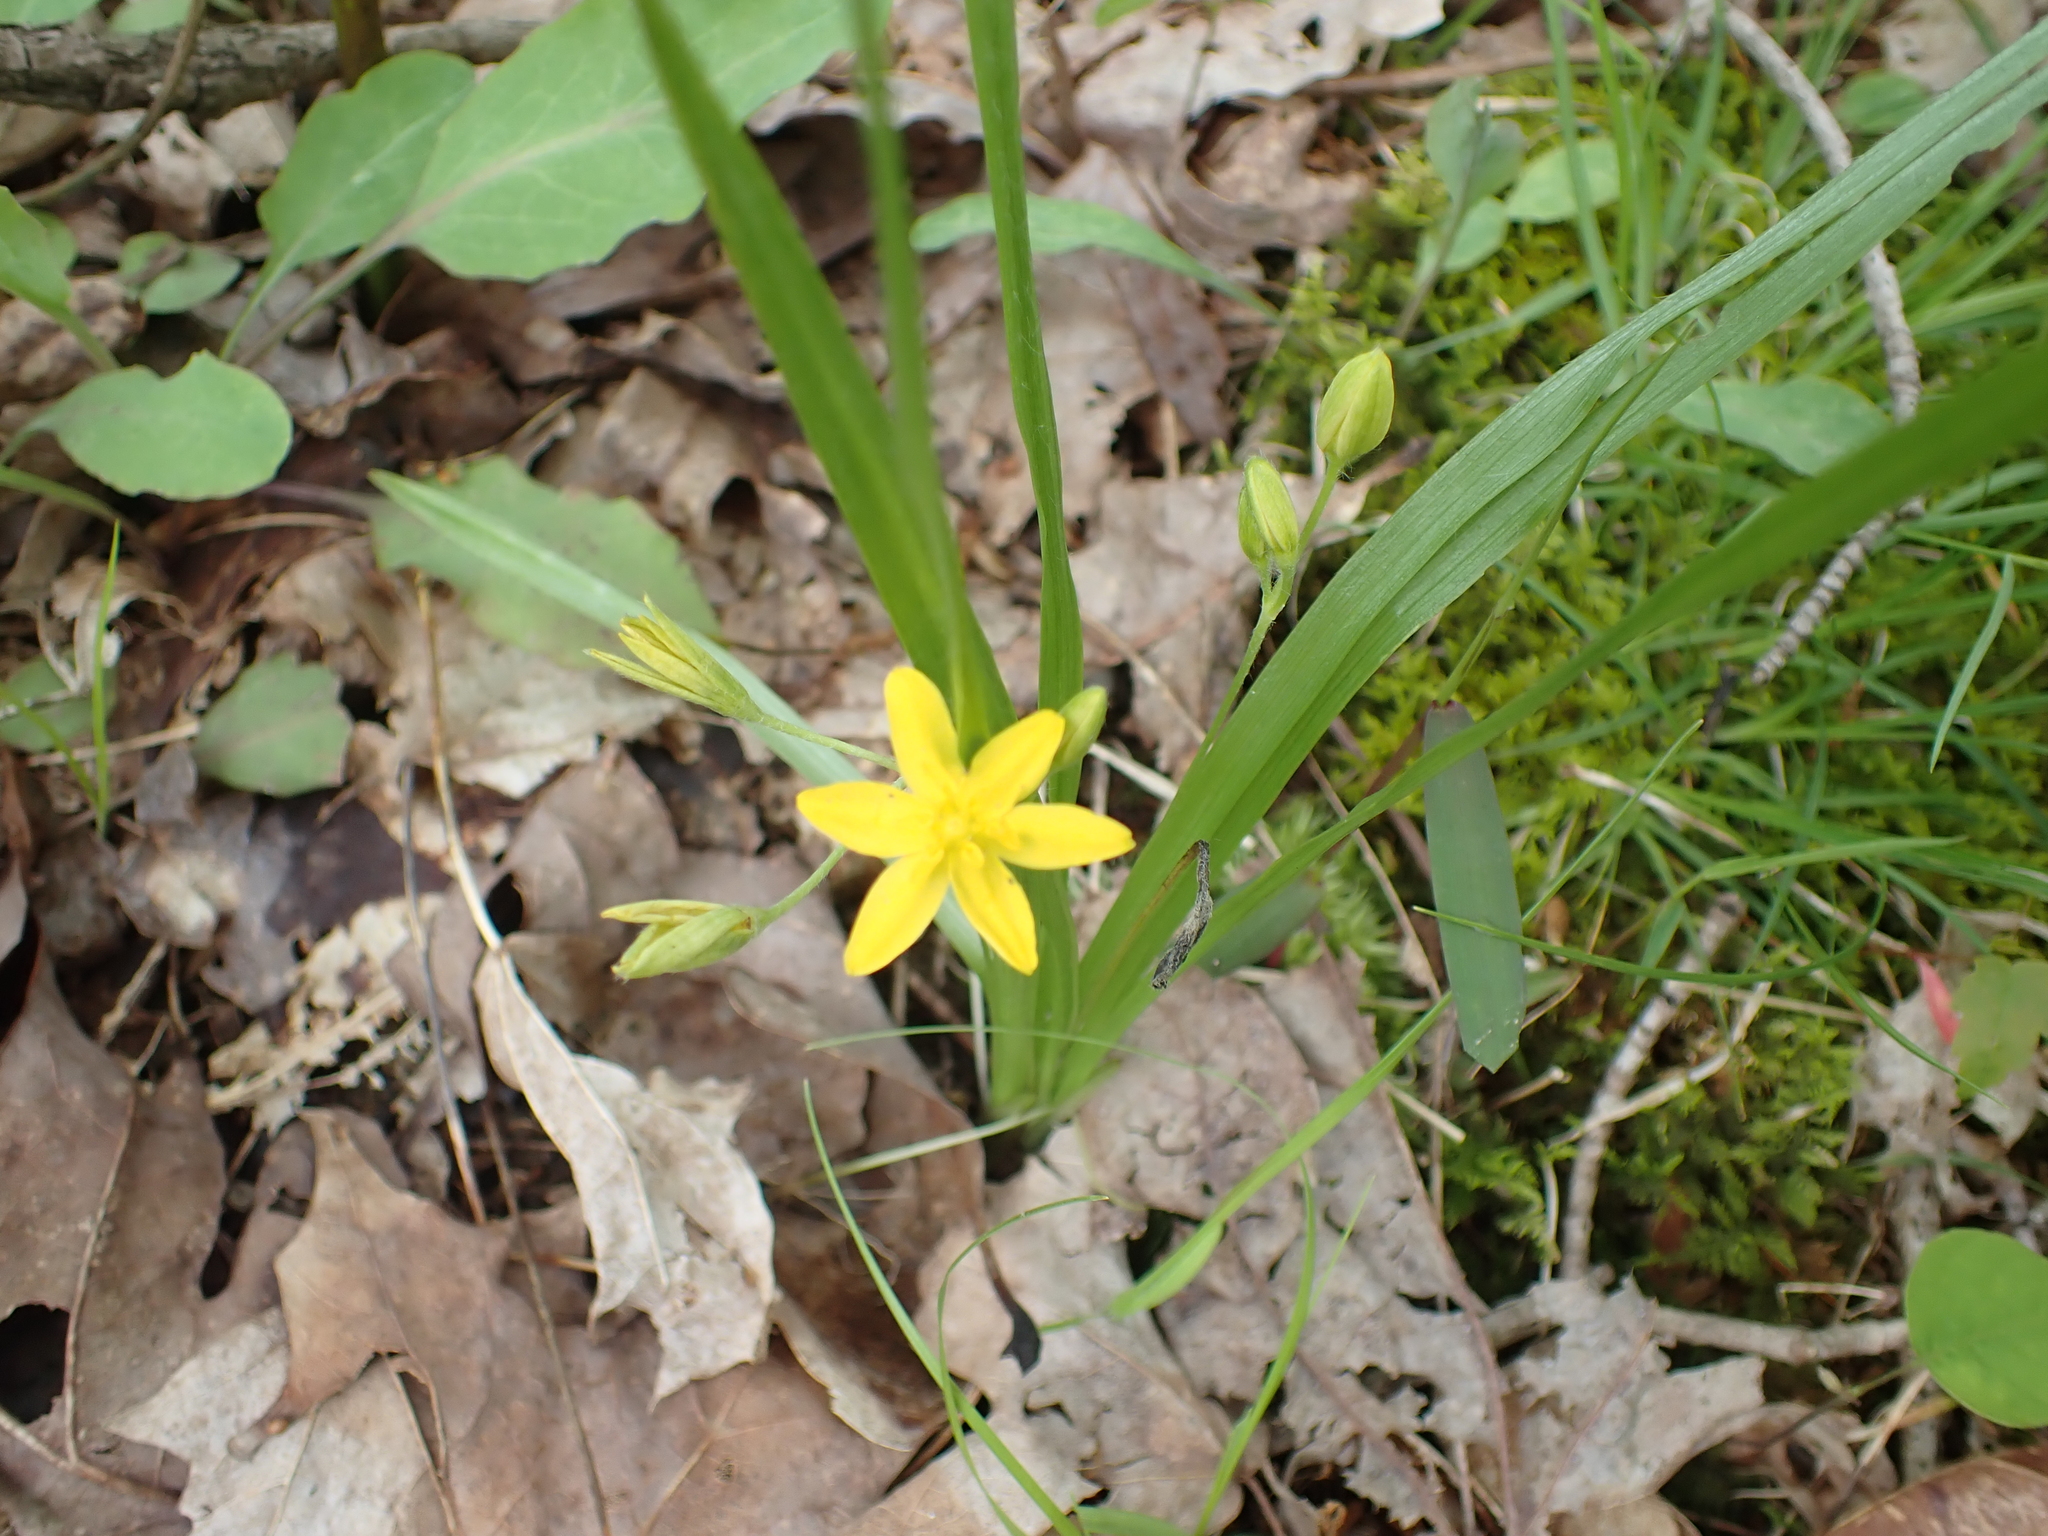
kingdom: Plantae
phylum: Tracheophyta
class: Liliopsida
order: Asparagales
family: Hypoxidaceae
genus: Hypoxis
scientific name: Hypoxis hirsuta
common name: Common goldstar
